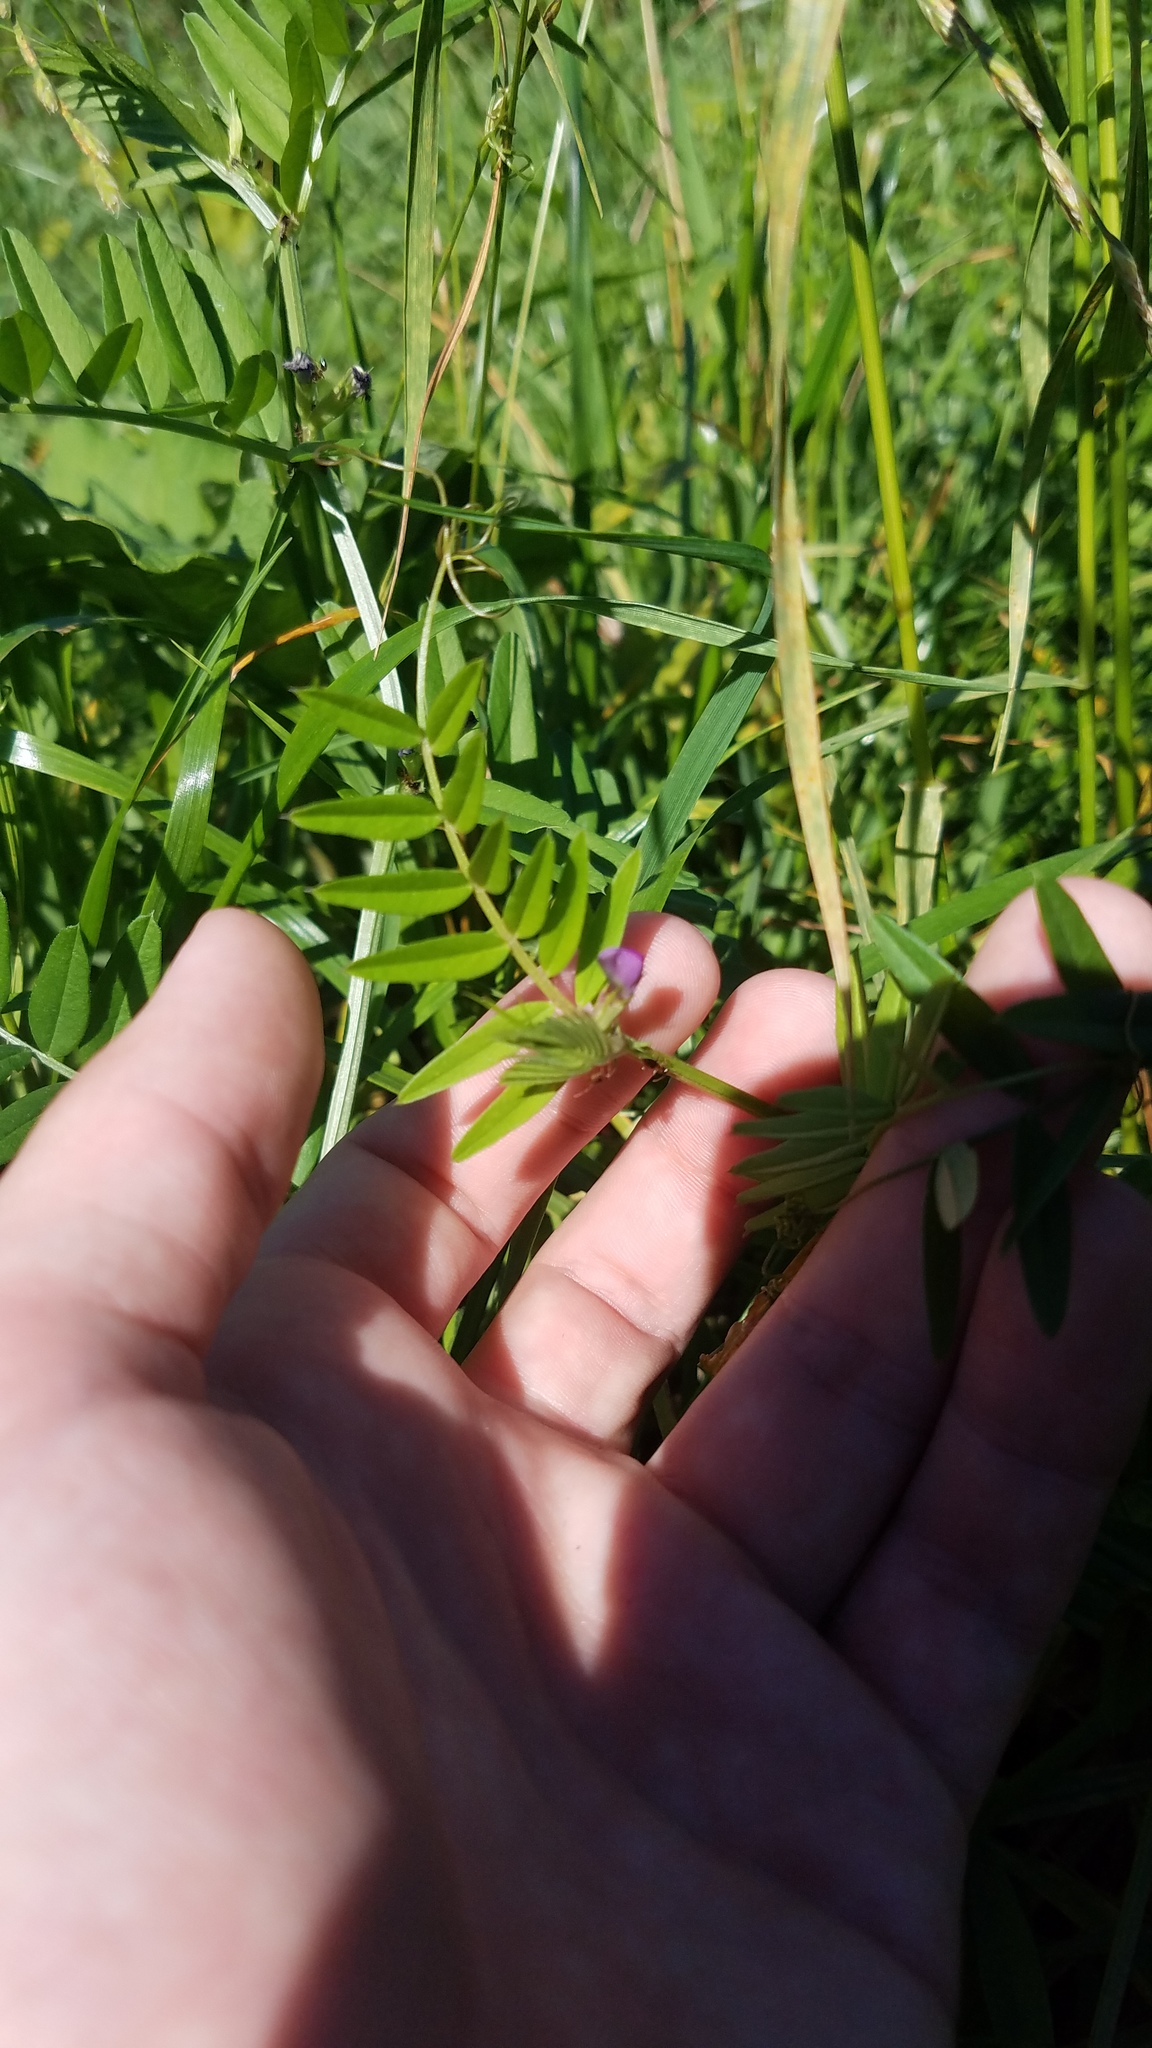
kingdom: Plantae
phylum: Tracheophyta
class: Magnoliopsida
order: Fabales
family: Fabaceae
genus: Vicia
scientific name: Vicia sativa
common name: Garden vetch
